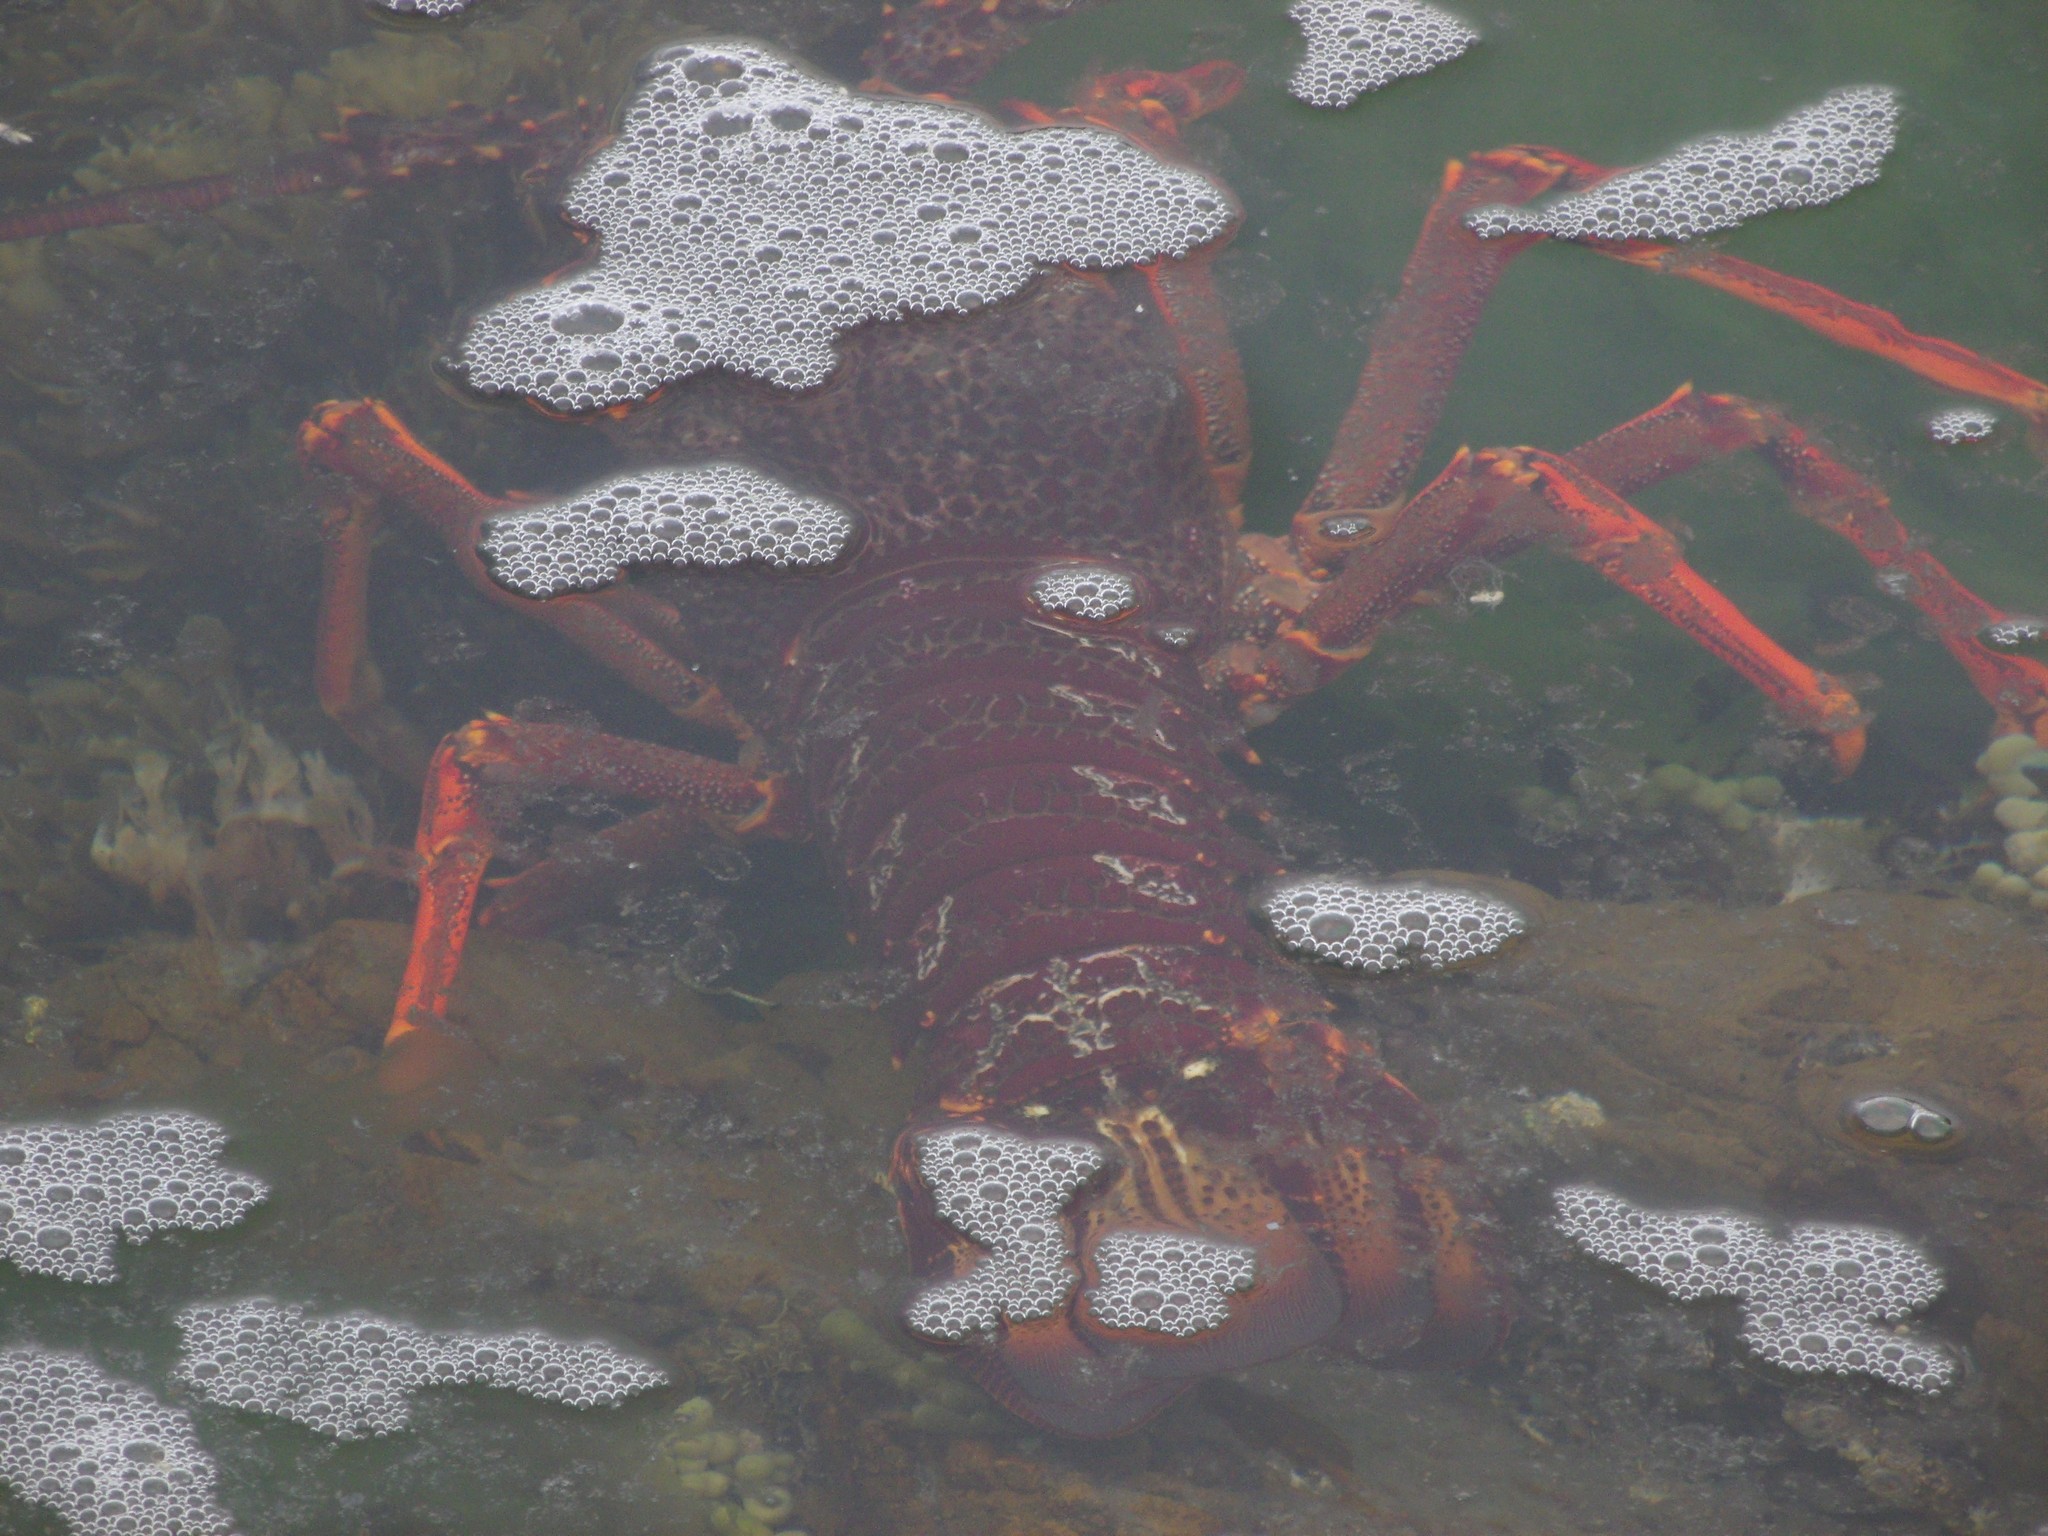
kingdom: Animalia
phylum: Arthropoda
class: Malacostraca
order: Decapoda
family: Palinuridae
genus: Jasus
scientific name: Jasus edwardsii
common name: Red rock lobster
